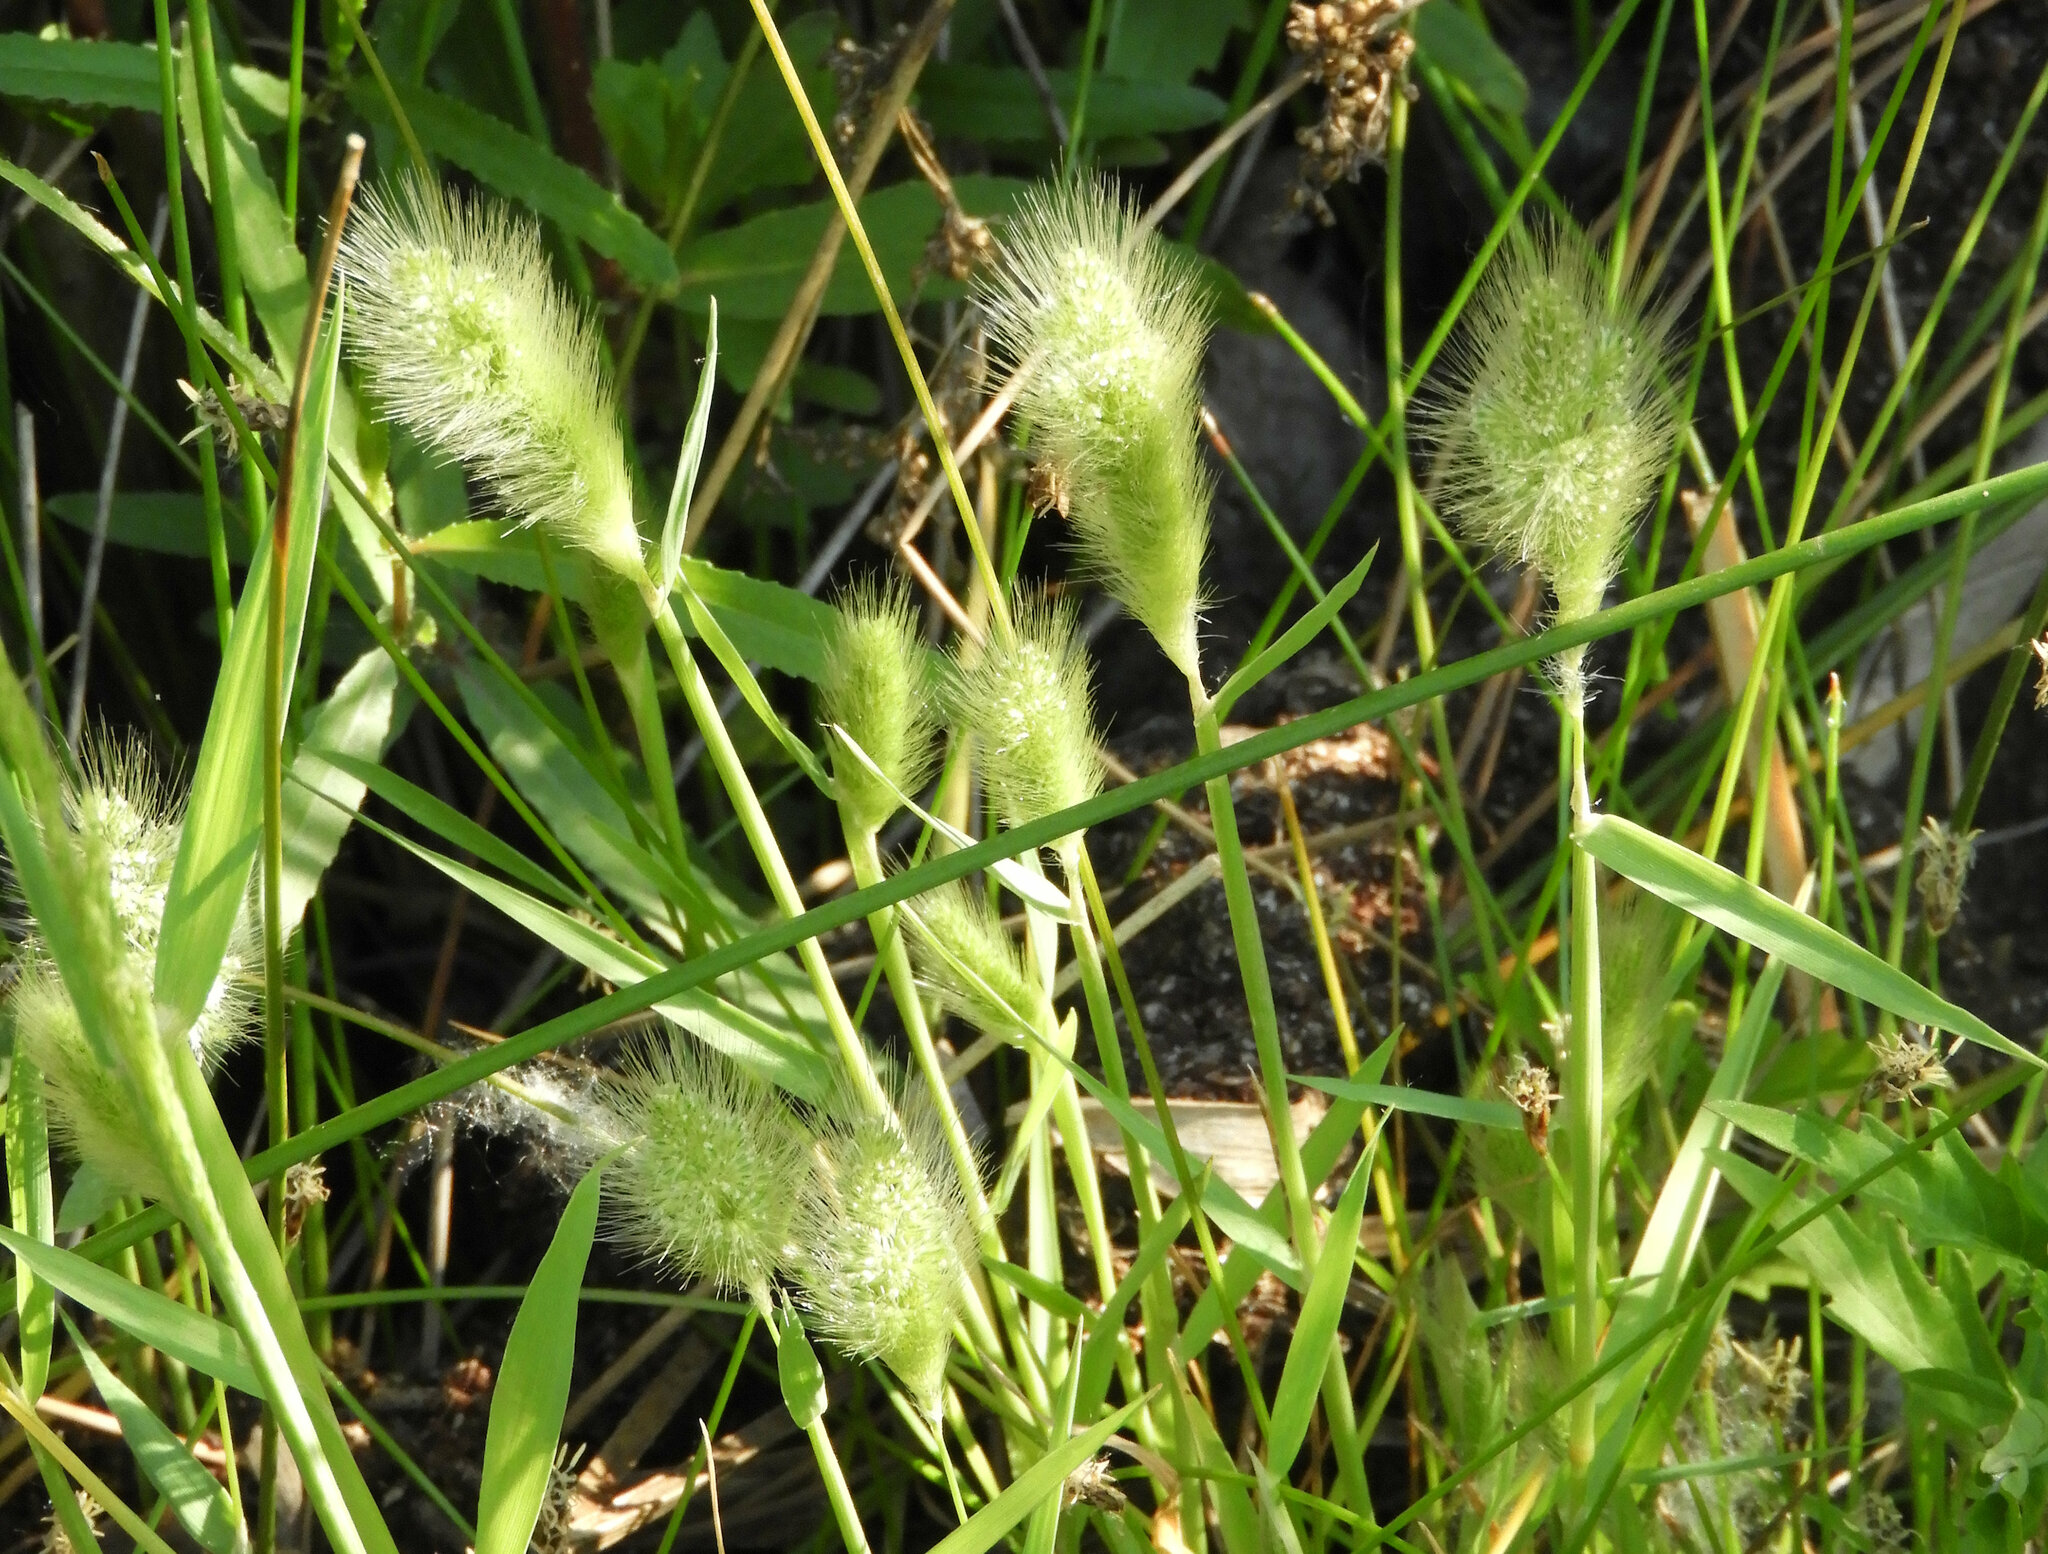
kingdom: Plantae
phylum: Tracheophyta
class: Liliopsida
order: Poales
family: Poaceae
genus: Polypogon
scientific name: Polypogon monspeliensis
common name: Annual rabbitsfoot grass
